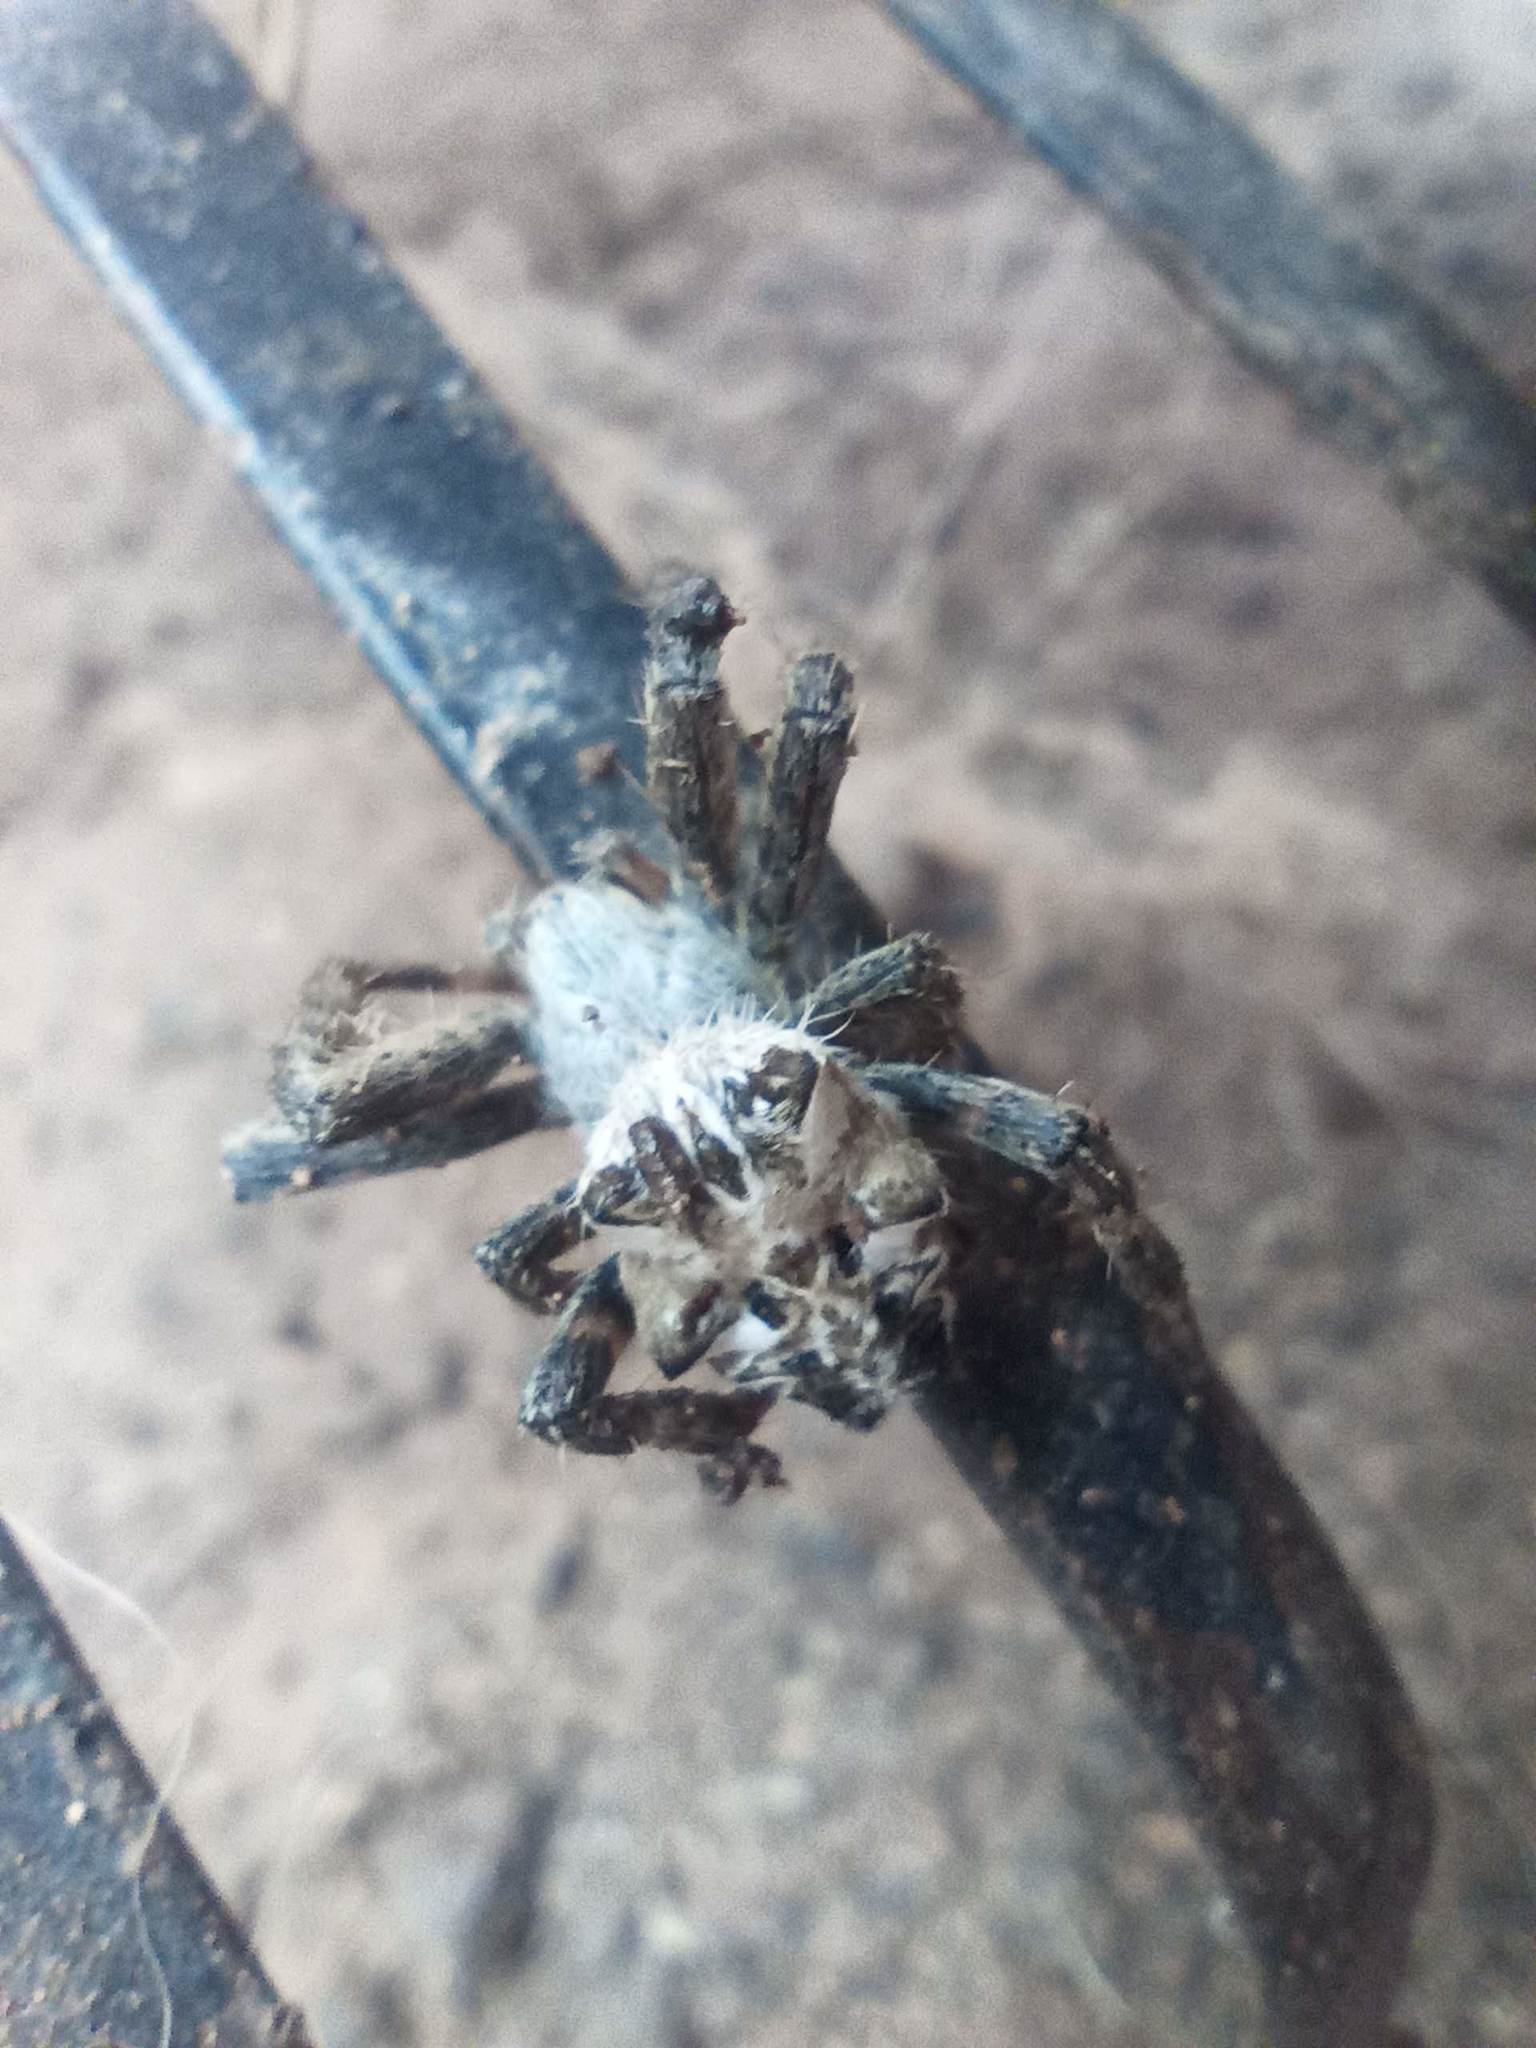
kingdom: Animalia
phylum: Arthropoda
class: Arachnida
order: Araneae
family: Araneidae
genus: Cyrtophora
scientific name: Cyrtophora citricola
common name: Orb weavers
